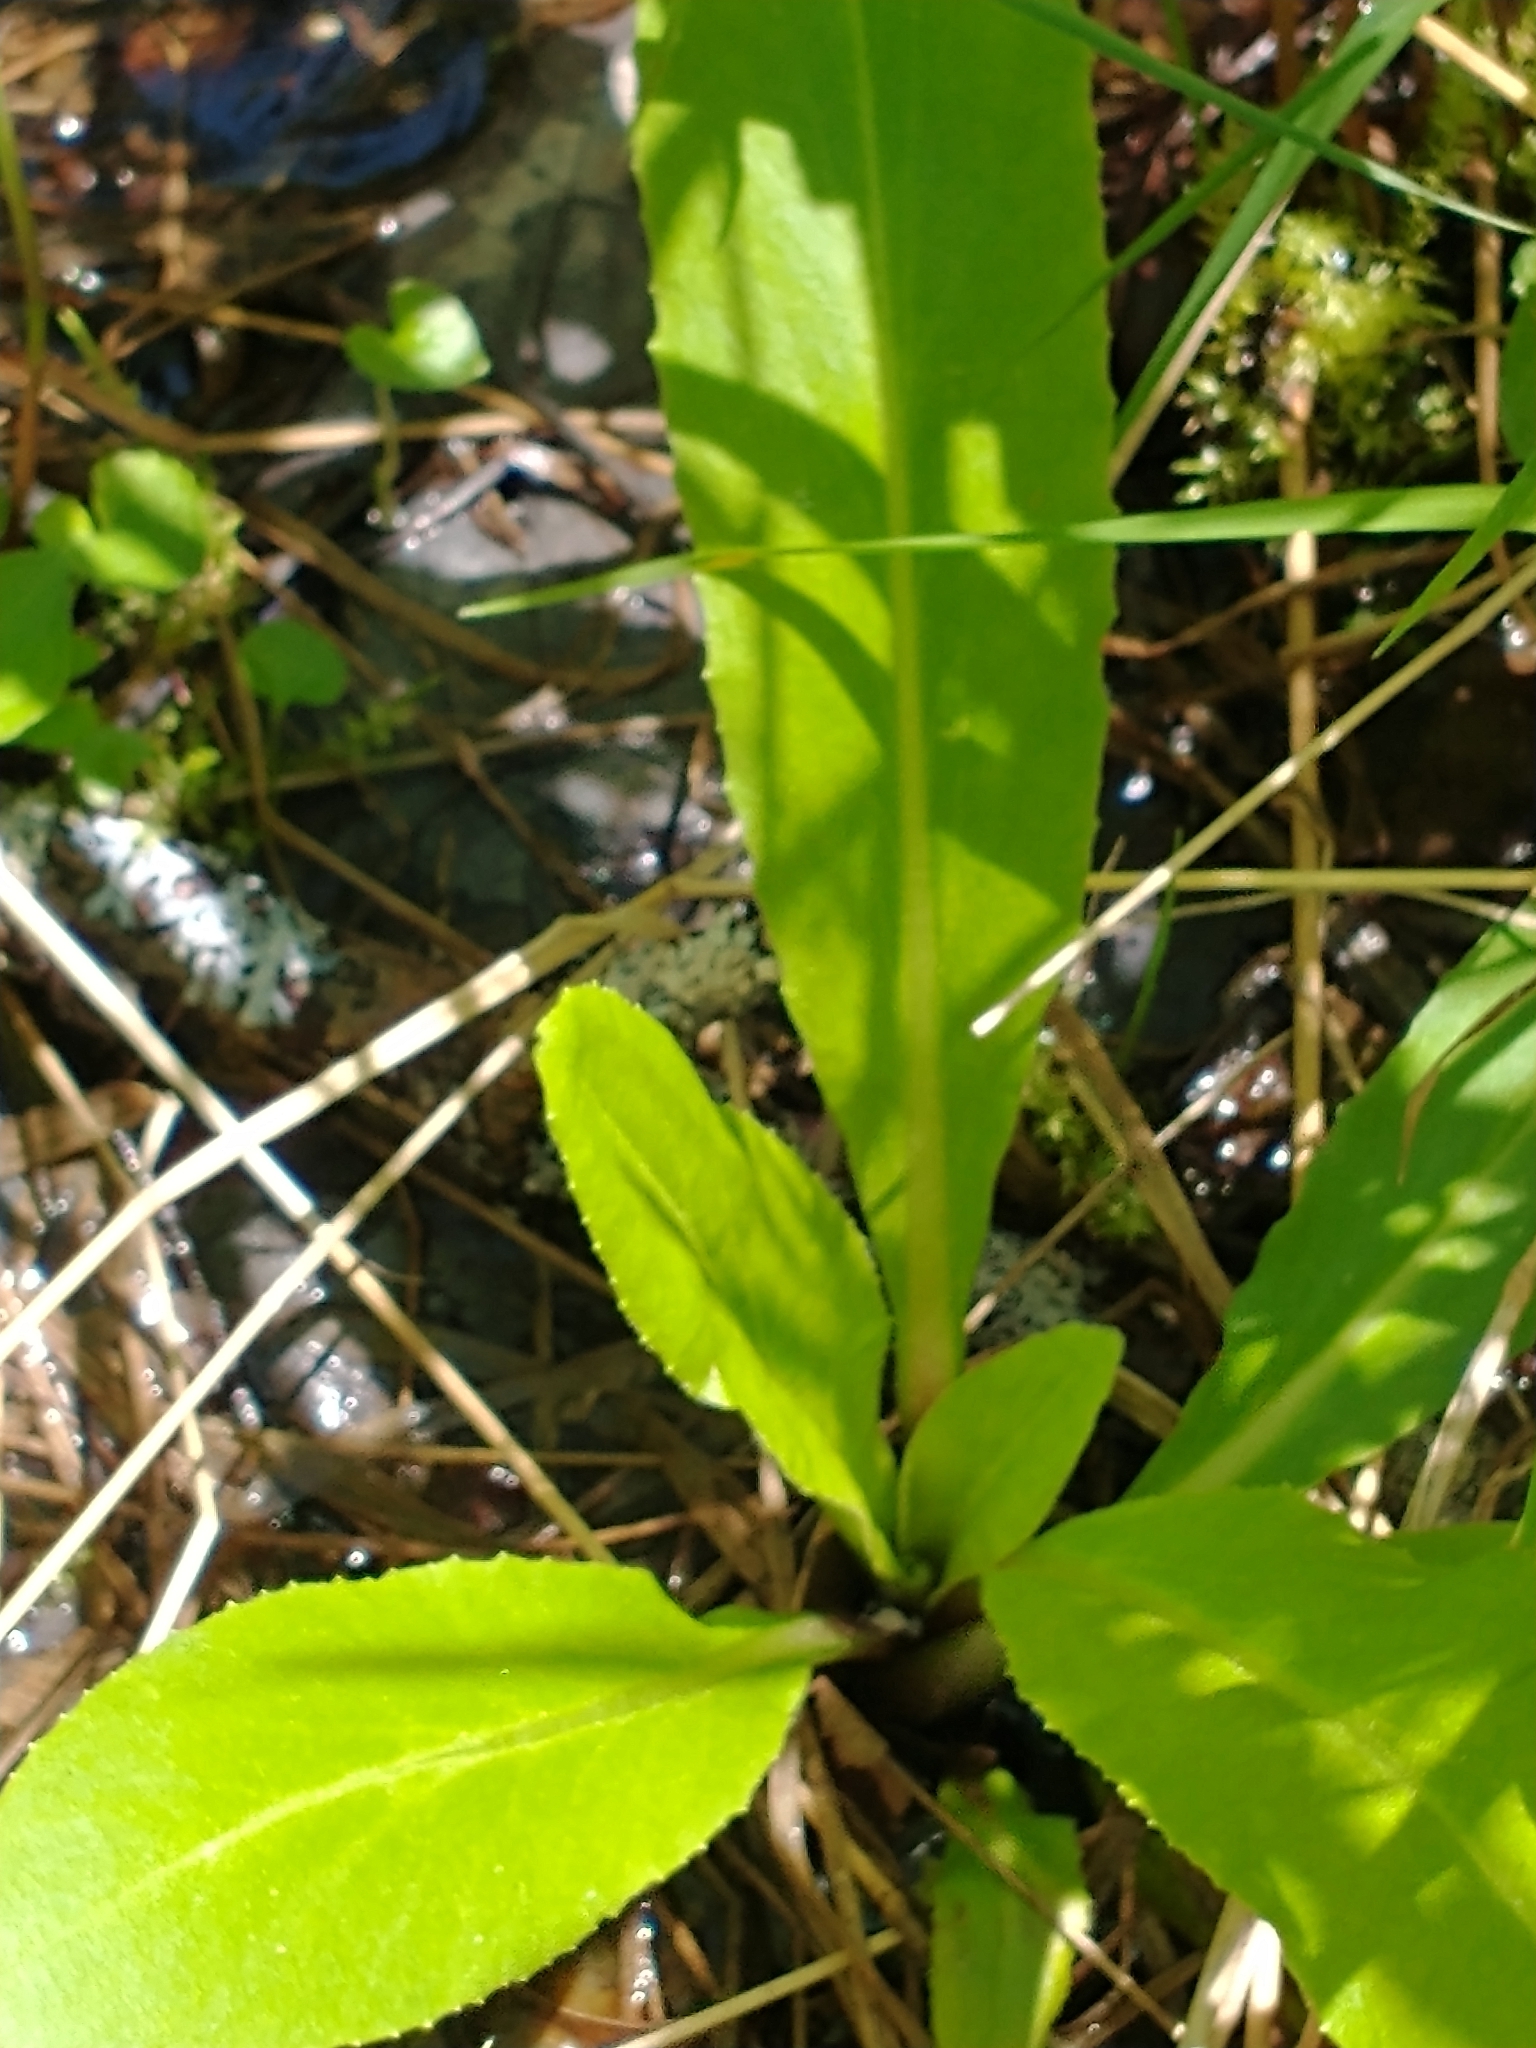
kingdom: Plantae
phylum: Tracheophyta
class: Magnoliopsida
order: Saxifragales
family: Saxifragaceae
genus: Micranthes
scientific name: Micranthes pensylvanica
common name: Marsh saxifrage
